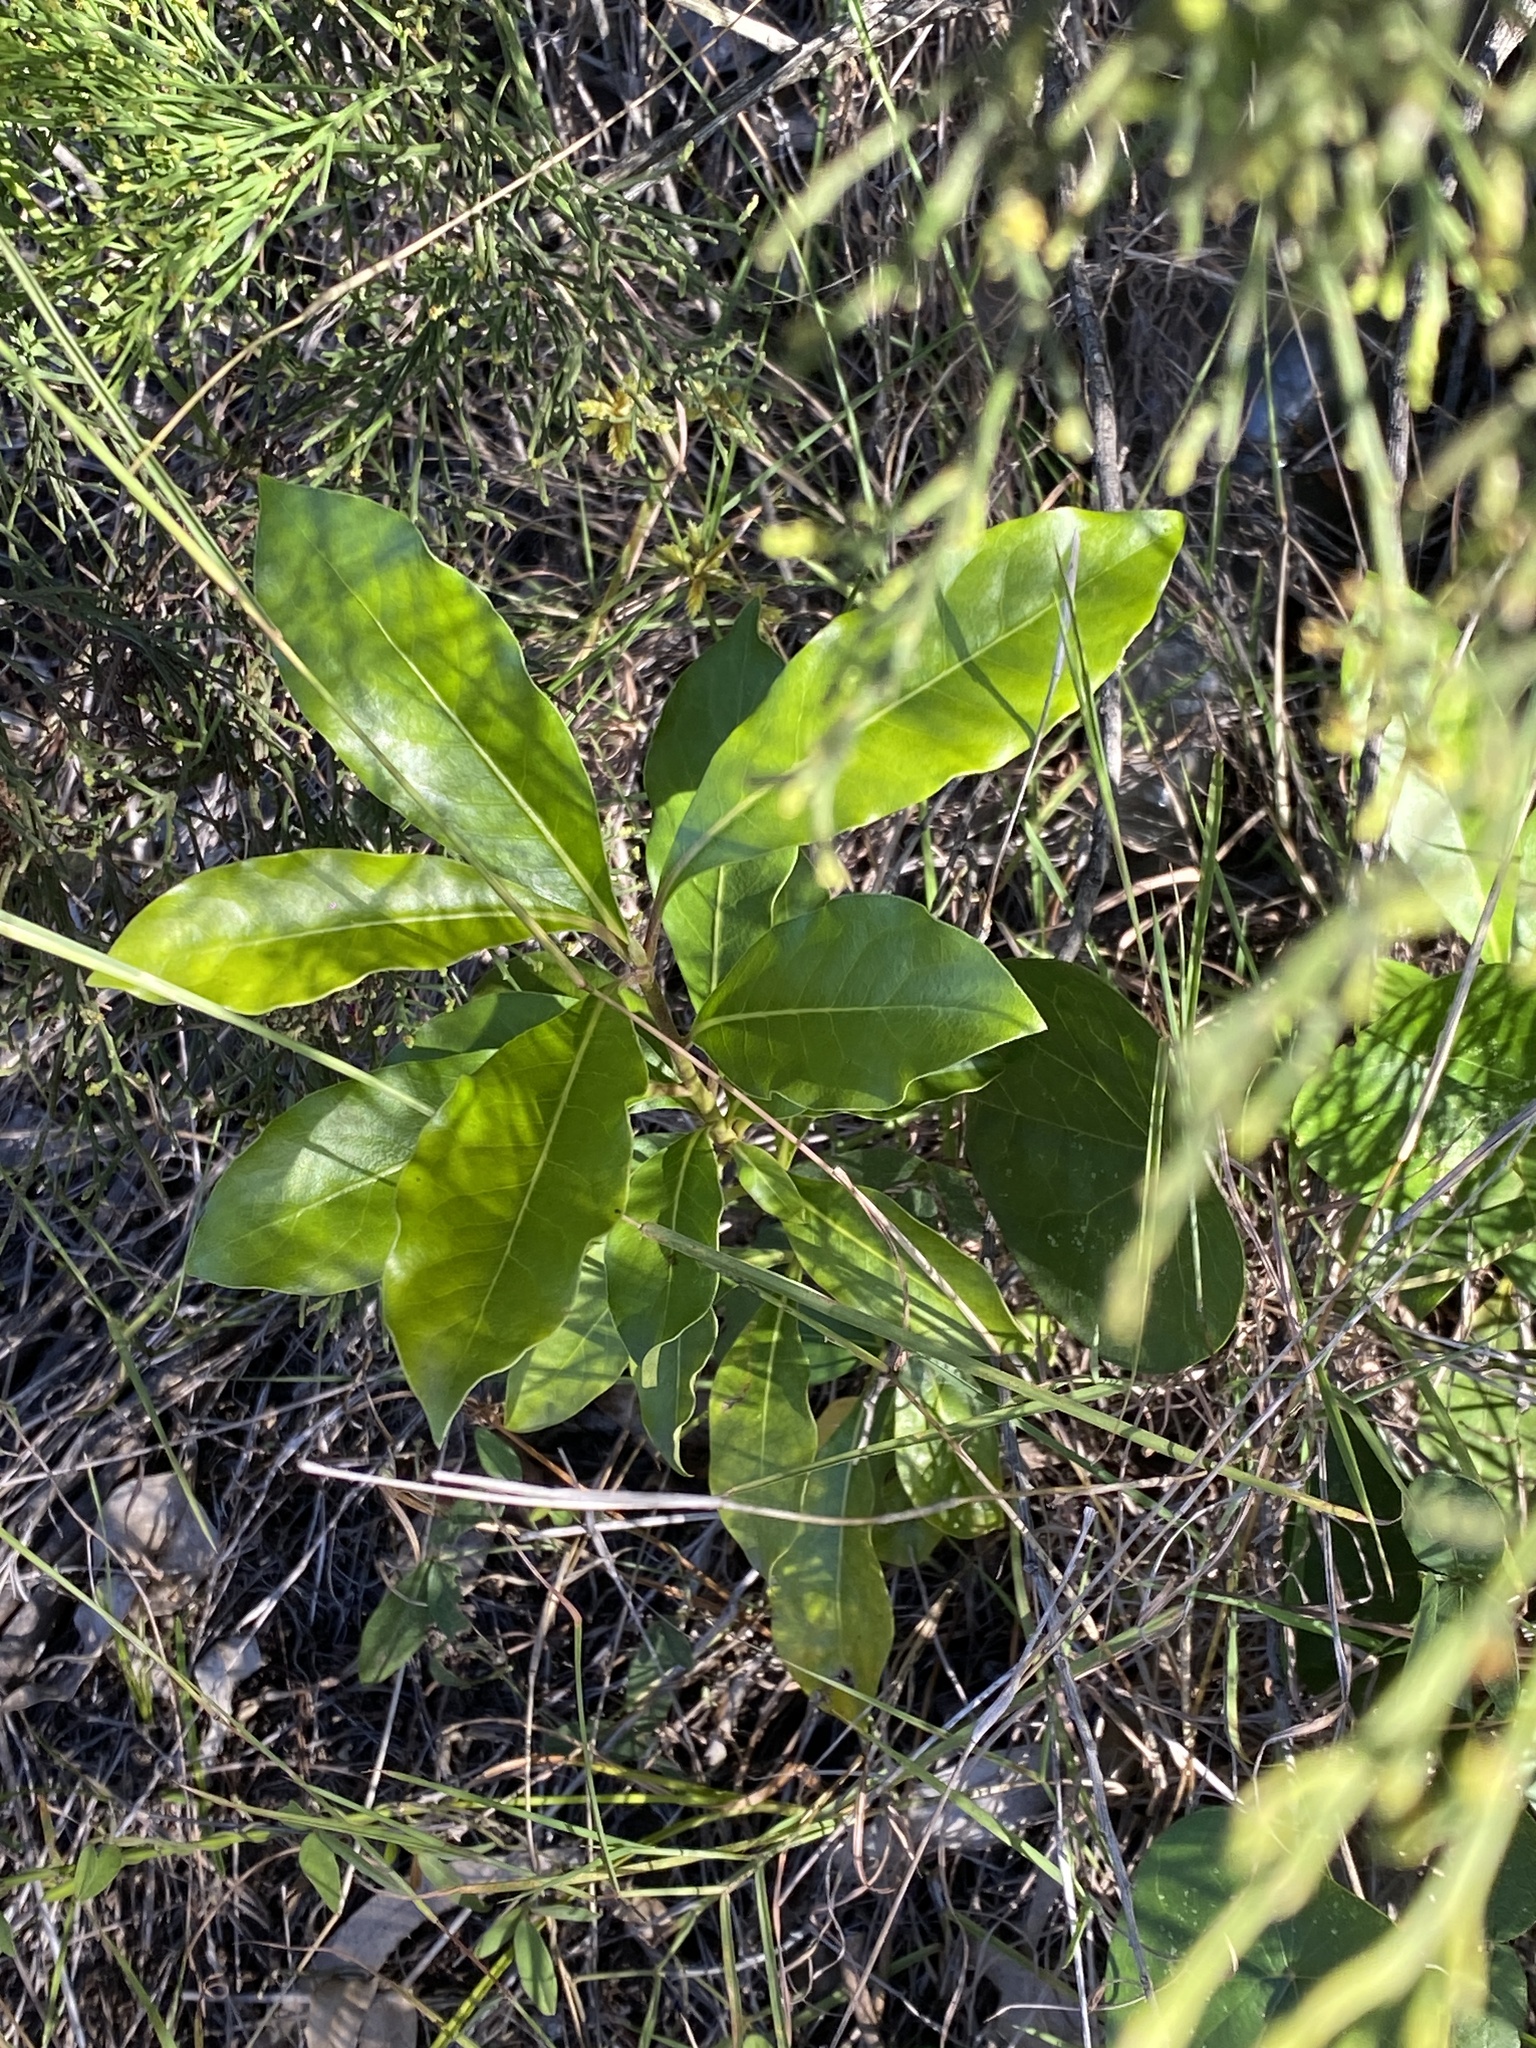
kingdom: Plantae
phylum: Tracheophyta
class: Magnoliopsida
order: Apiales
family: Pittosporaceae
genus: Pittosporum
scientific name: Pittosporum undulatum
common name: Australian cheesewood
